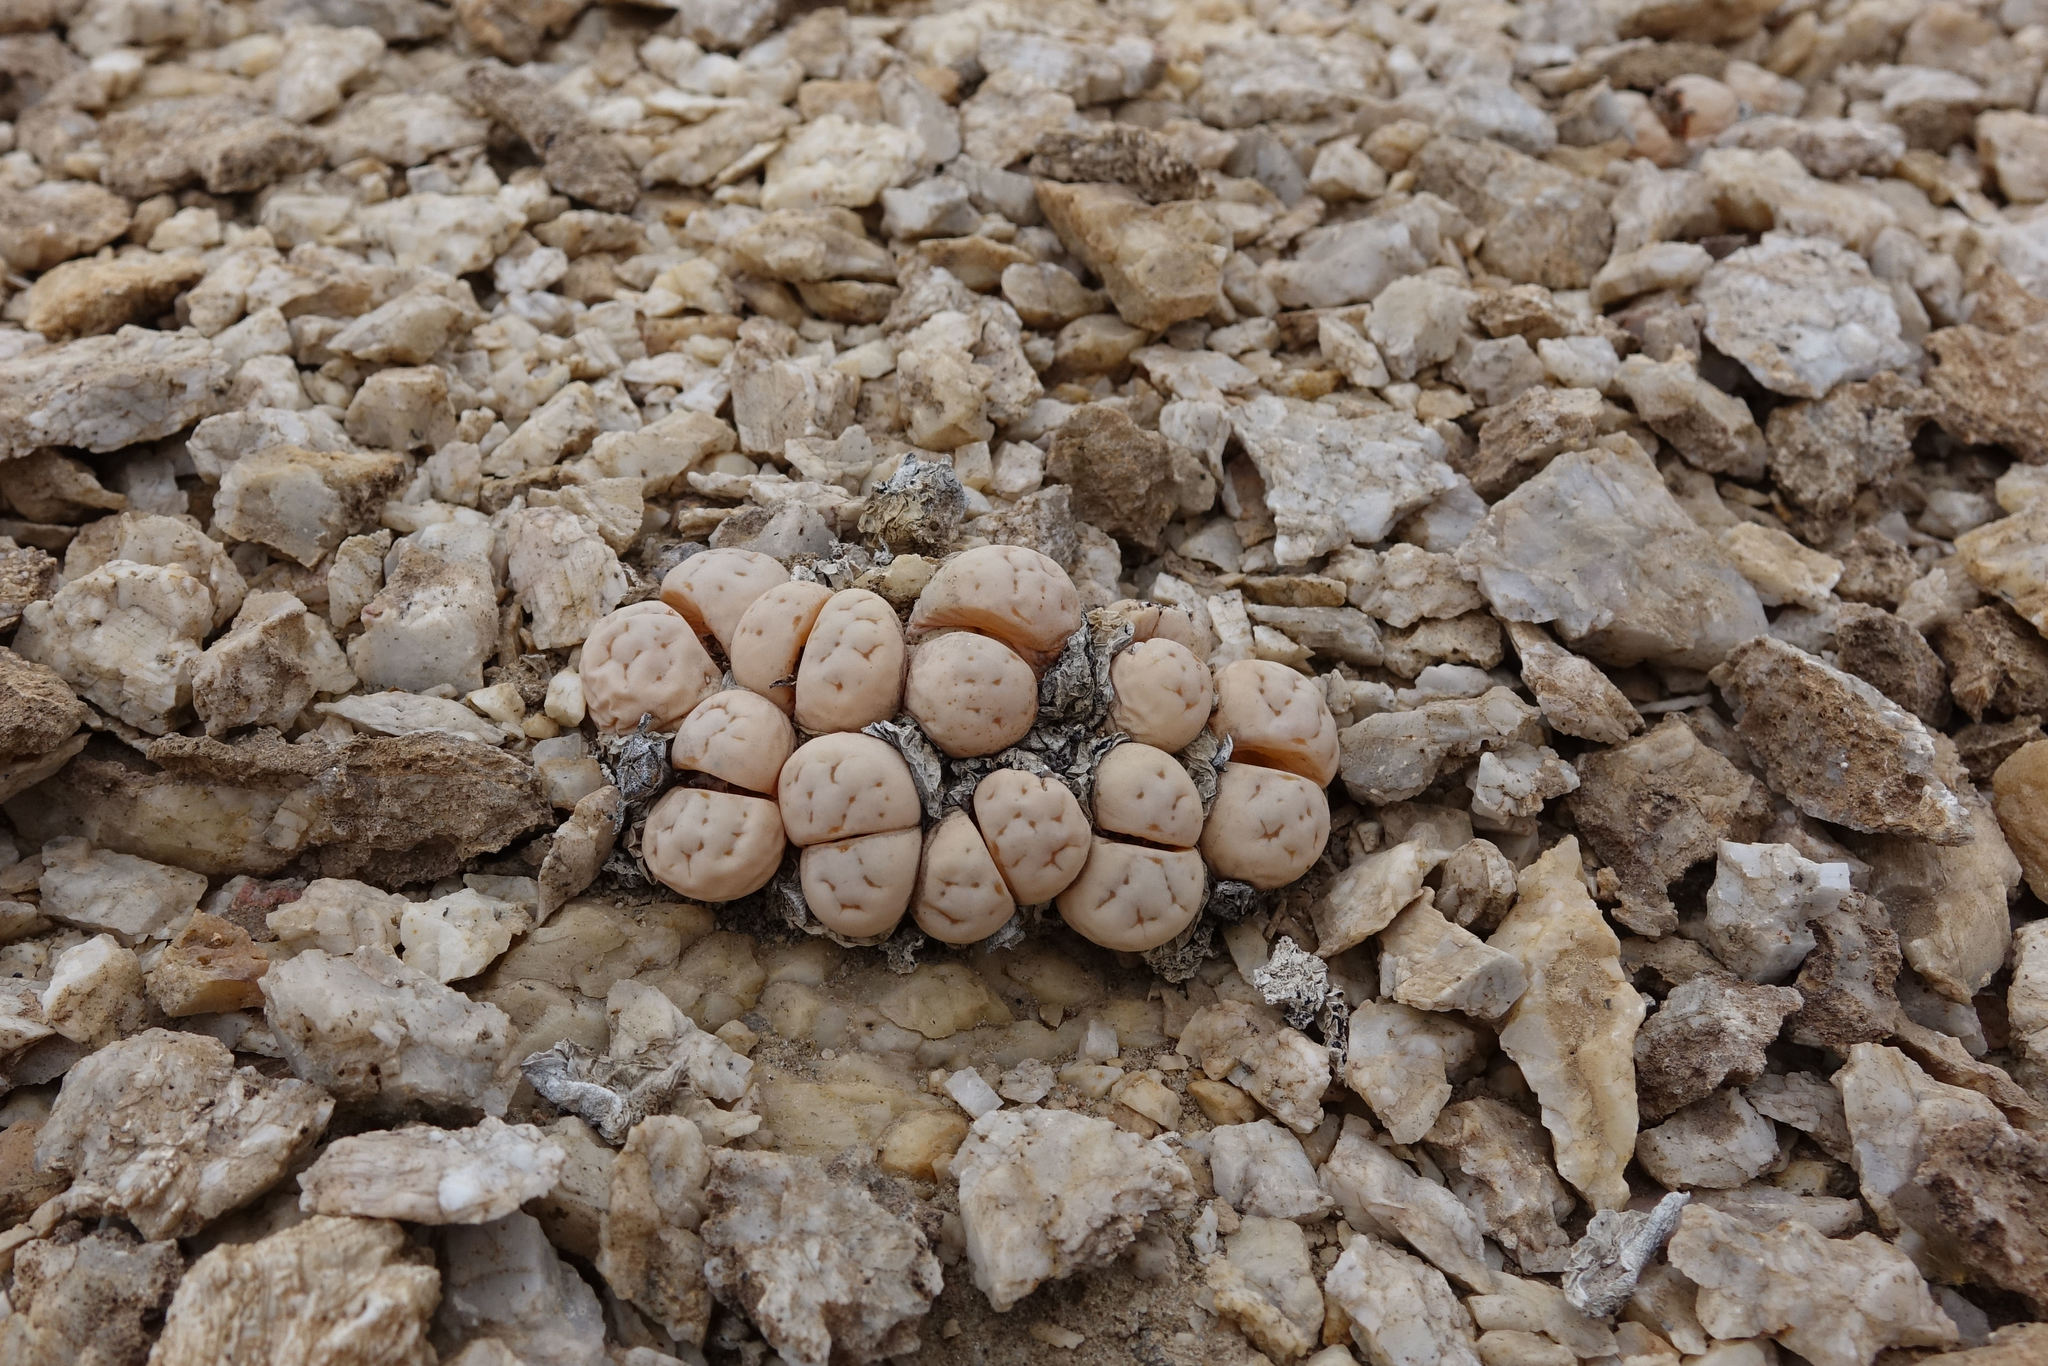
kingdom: Plantae
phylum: Tracheophyta
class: Magnoliopsida
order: Caryophyllales
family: Aizoaceae
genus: Lithops
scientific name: Lithops ruschiorum
